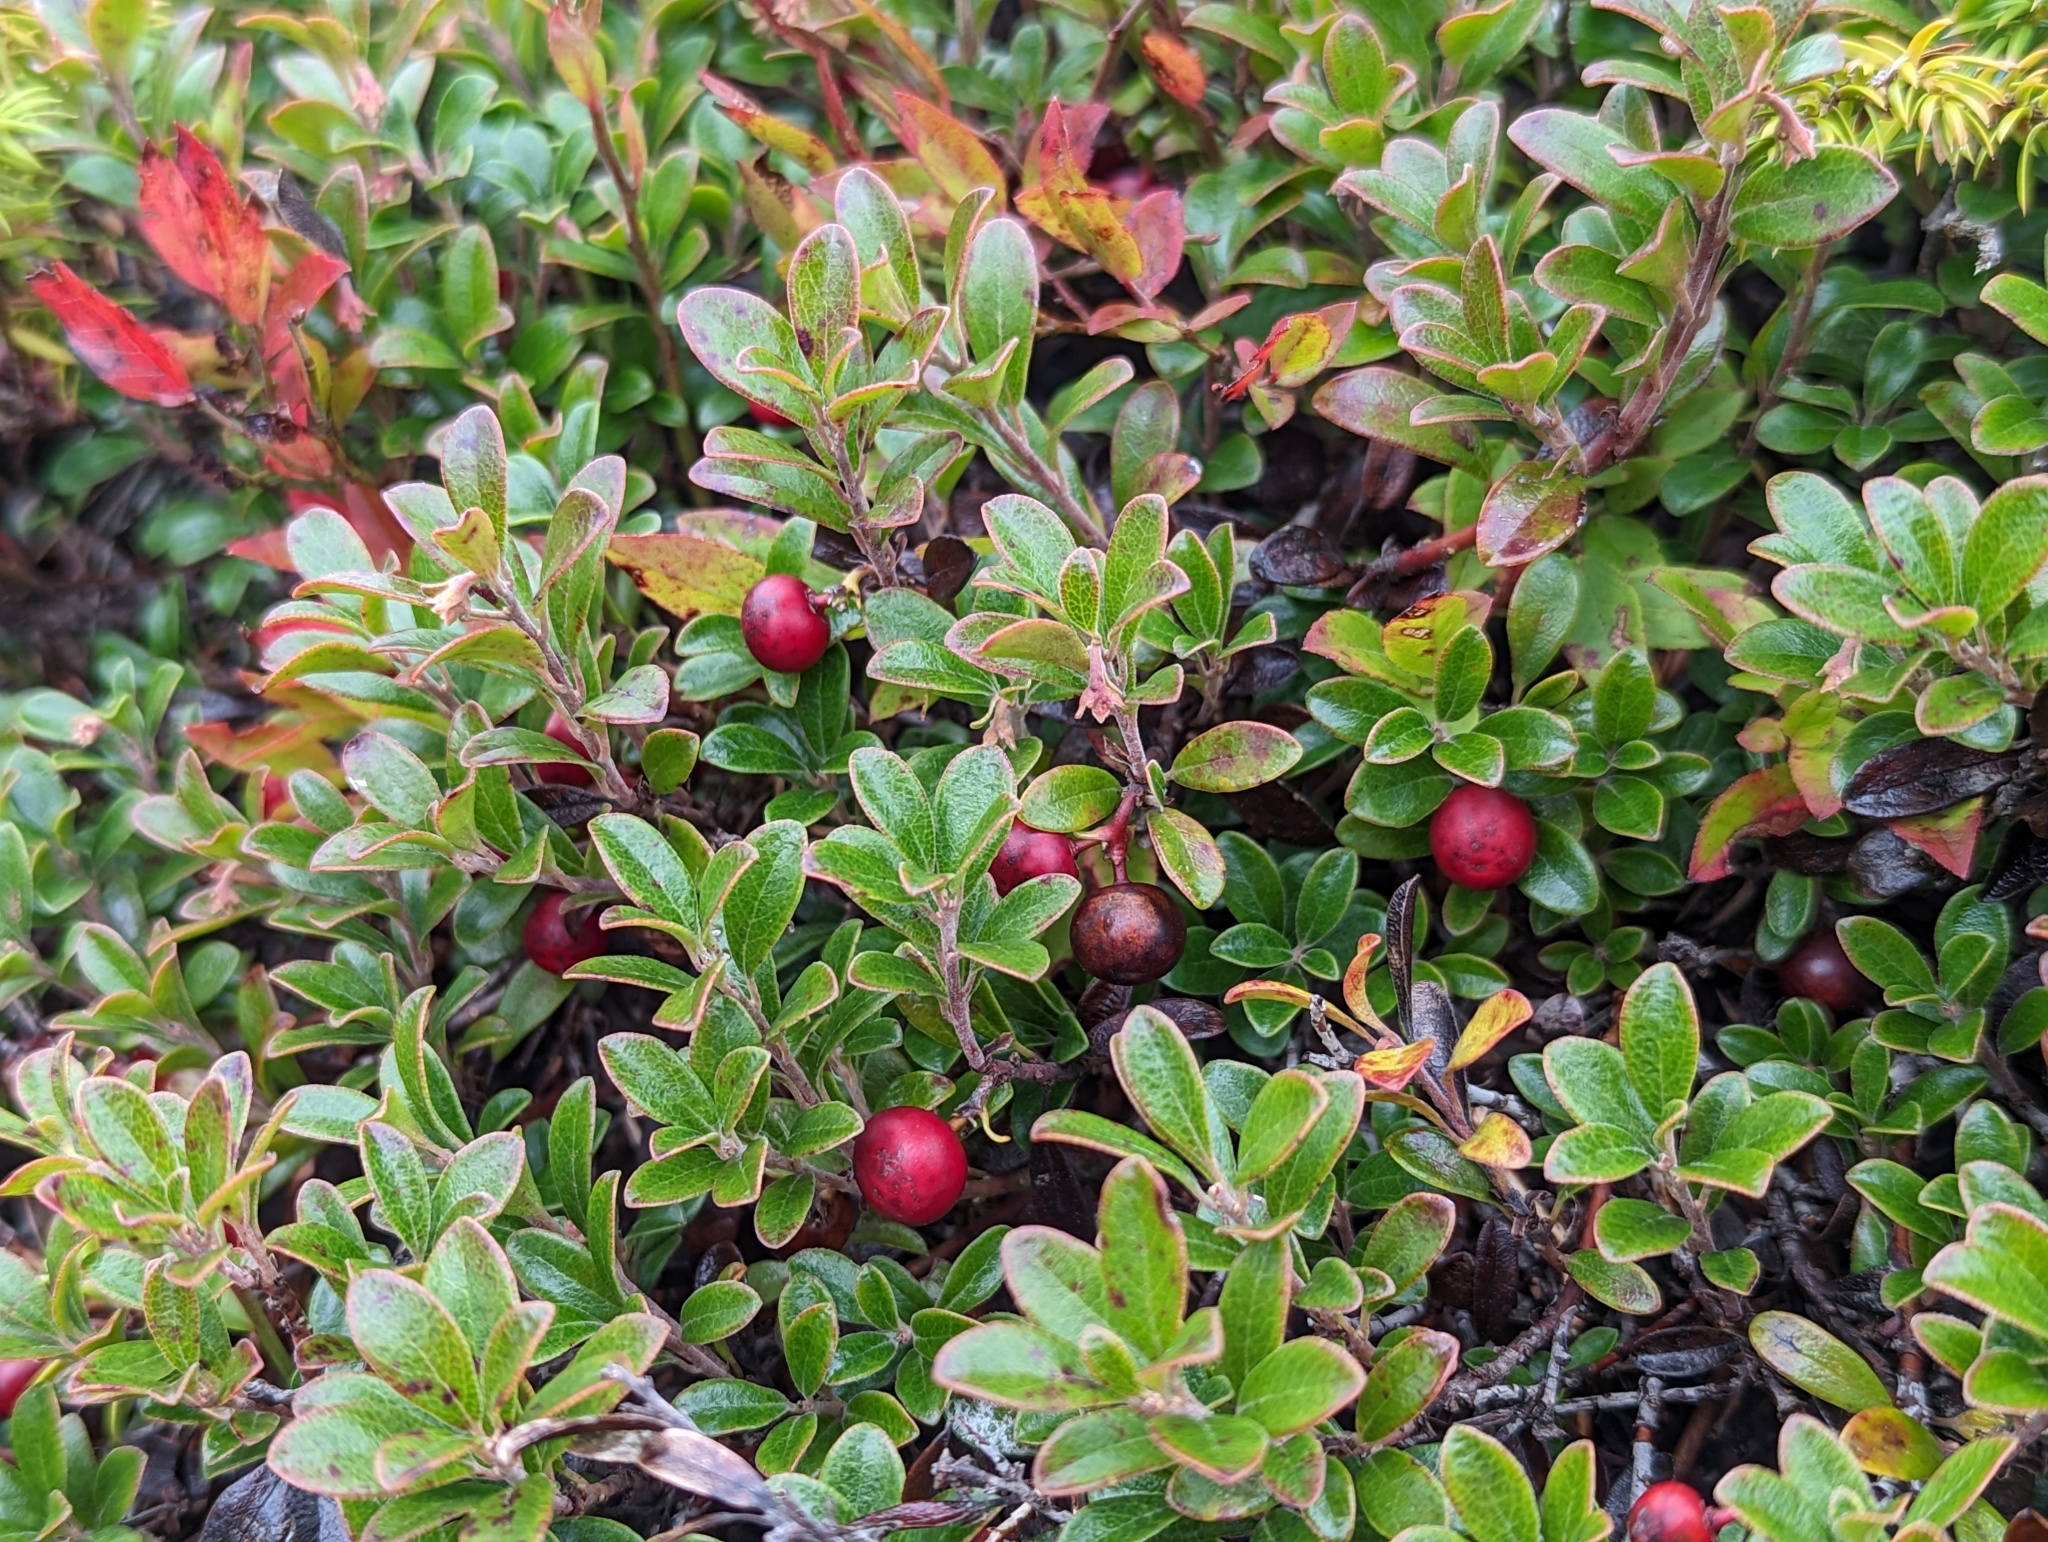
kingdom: Plantae
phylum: Tracheophyta
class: Magnoliopsida
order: Ericales
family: Ericaceae
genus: Arctostaphylos
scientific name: Arctostaphylos uva-ursi
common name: Bearberry
